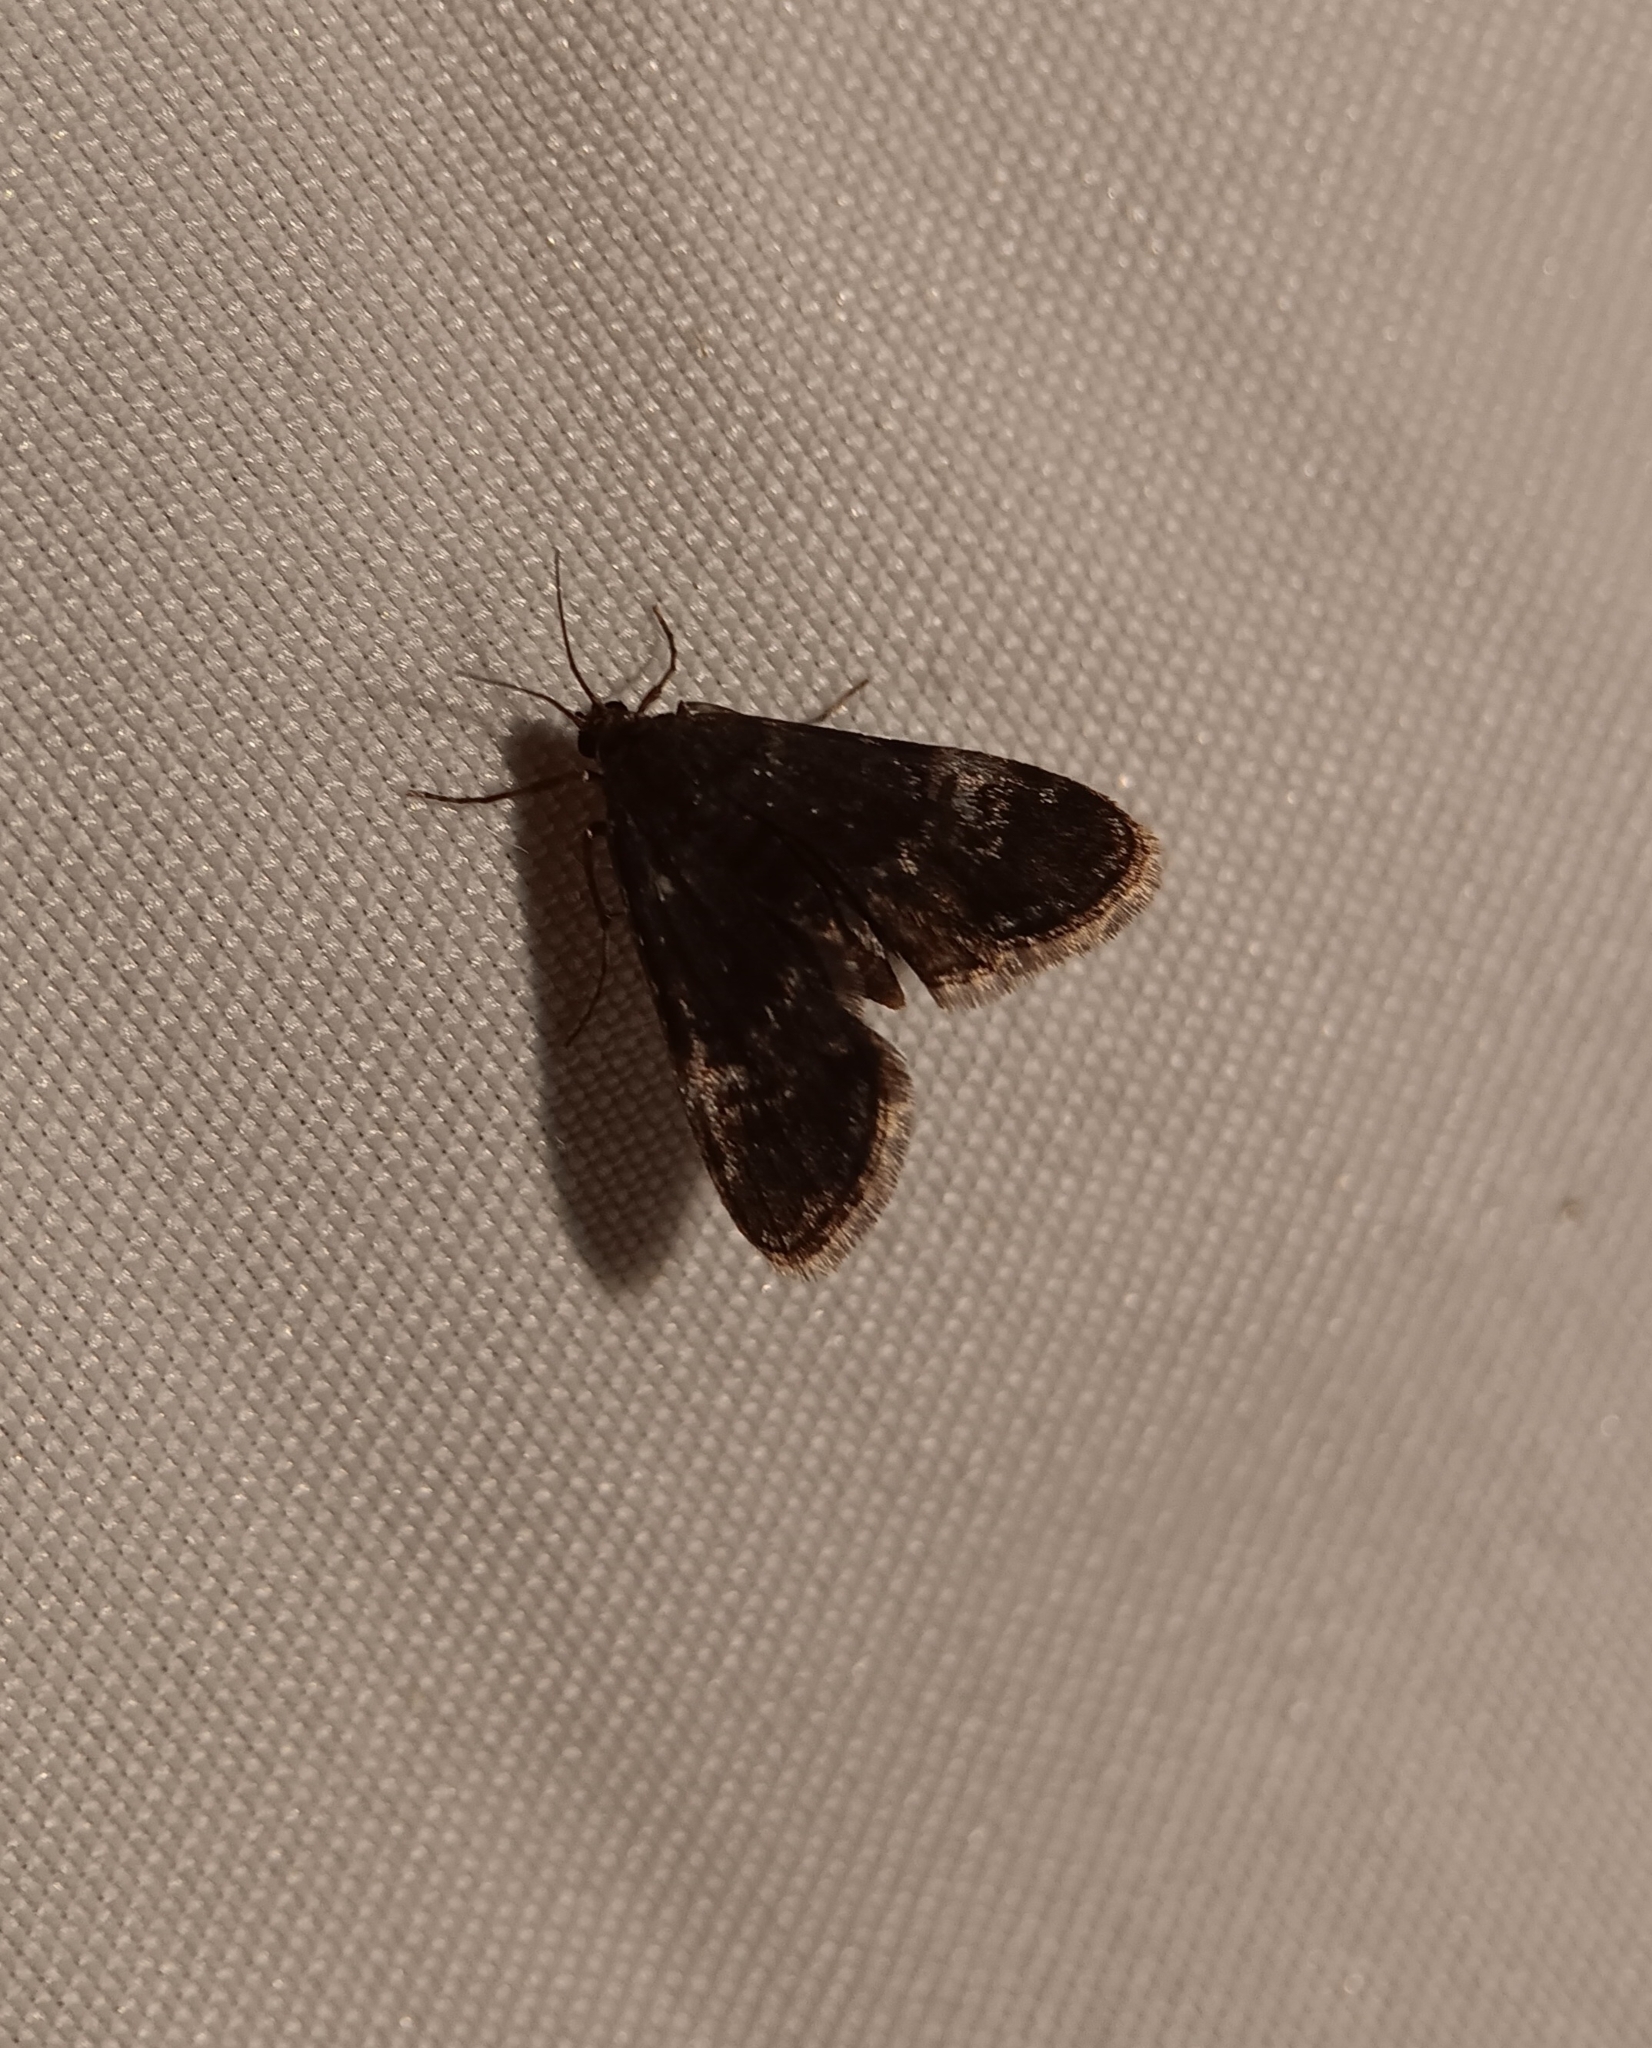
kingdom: Animalia
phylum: Arthropoda
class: Insecta
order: Lepidoptera
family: Crambidae
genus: Elophila
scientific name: Elophila tinealis
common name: Black duckweed moth
